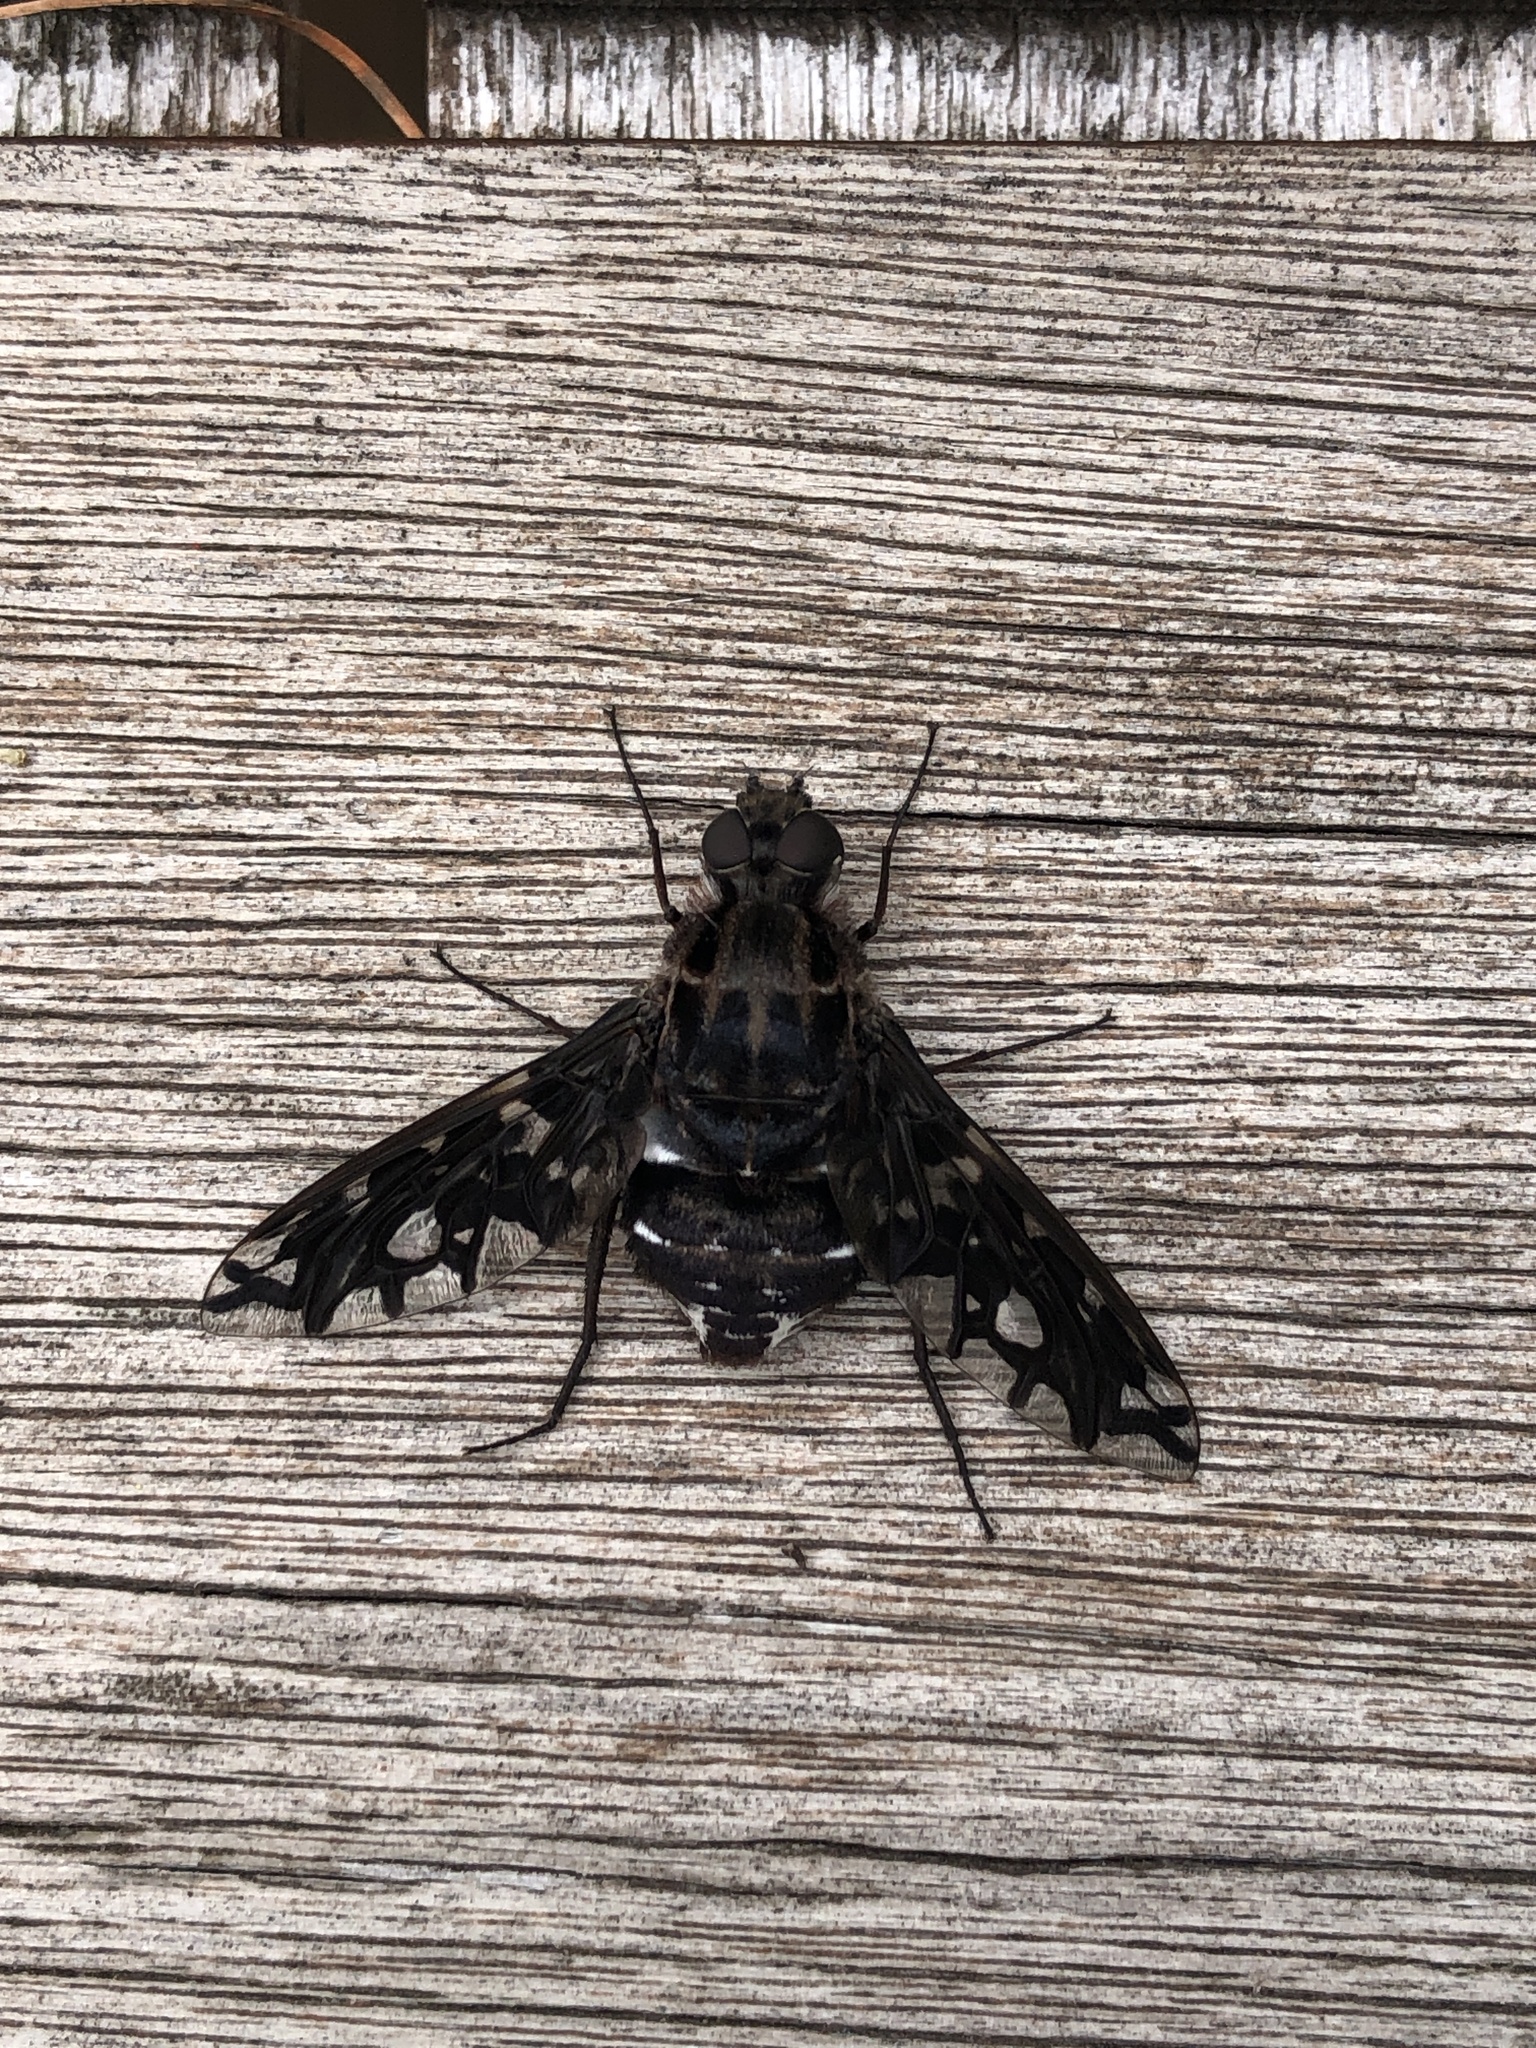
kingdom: Animalia
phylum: Arthropoda
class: Insecta
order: Diptera
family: Bombyliidae
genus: Xenox
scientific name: Xenox tigrinus
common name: Tiger bee fly
